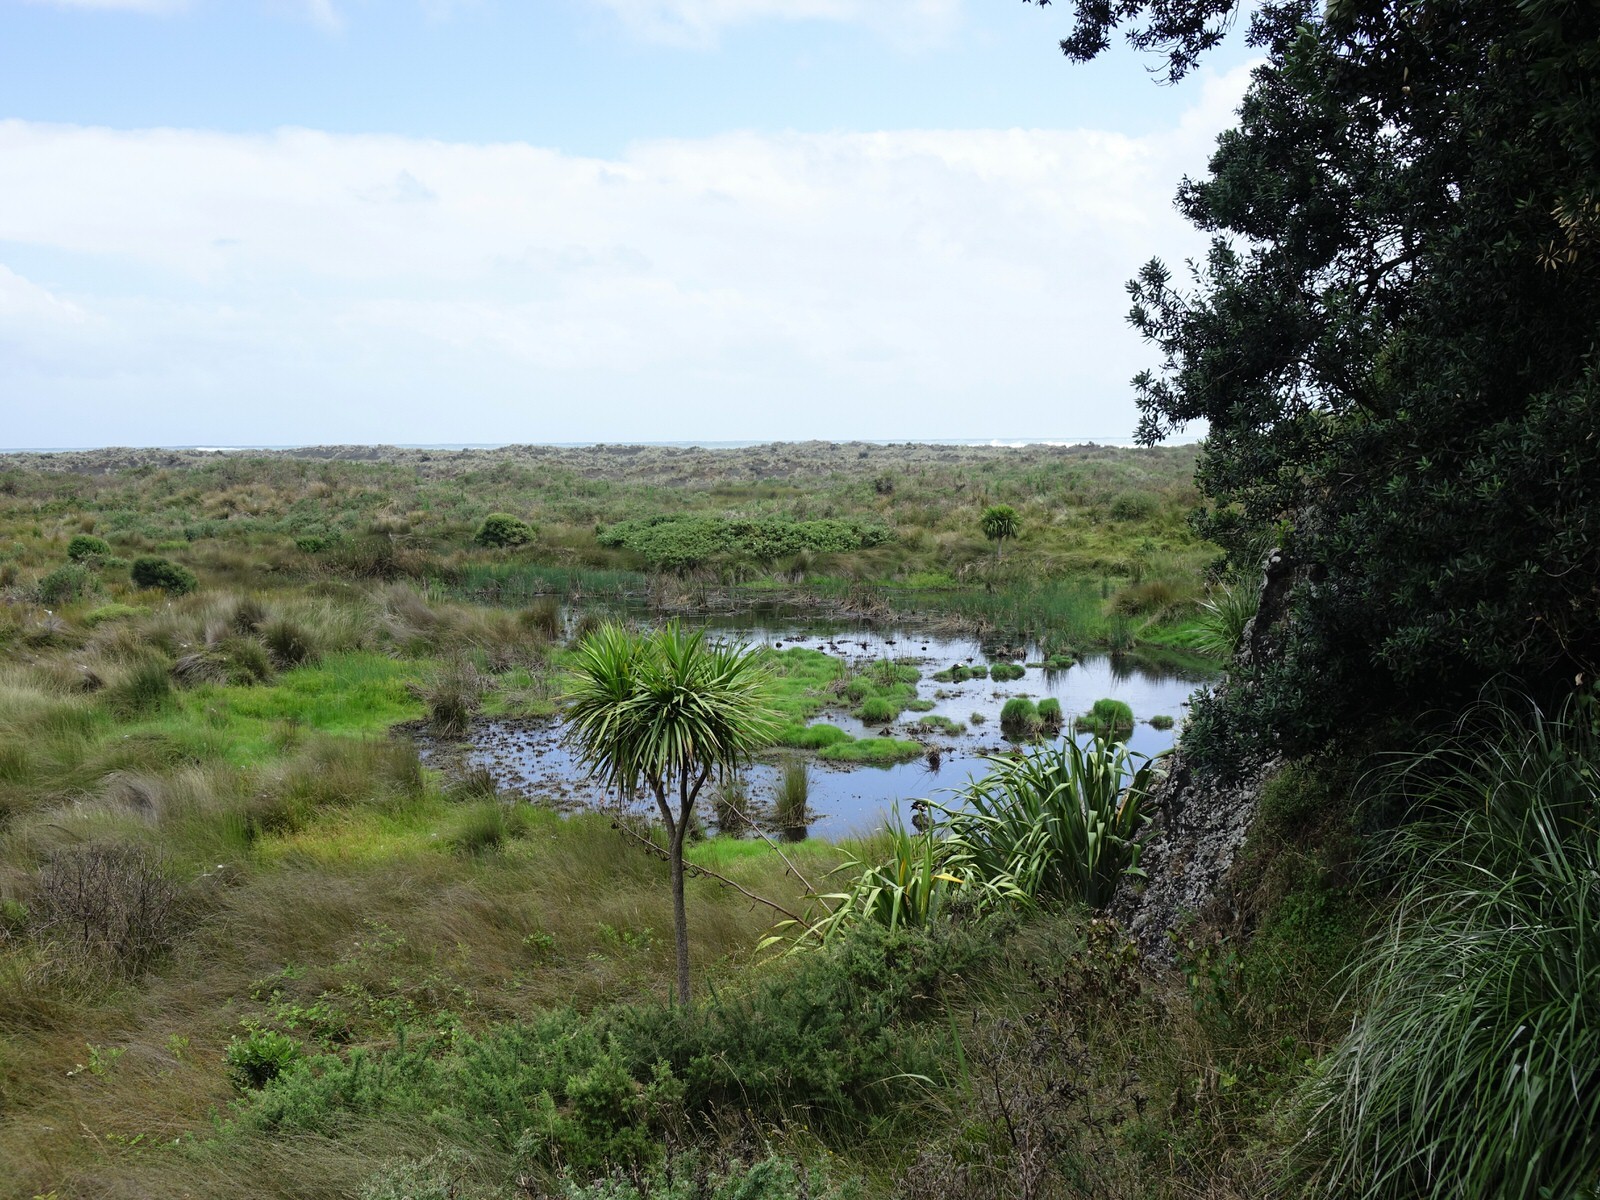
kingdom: Animalia
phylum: Chordata
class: Aves
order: Anseriformes
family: Anatidae
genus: Tadorna
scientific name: Tadorna variegata
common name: Paradise shelduck
